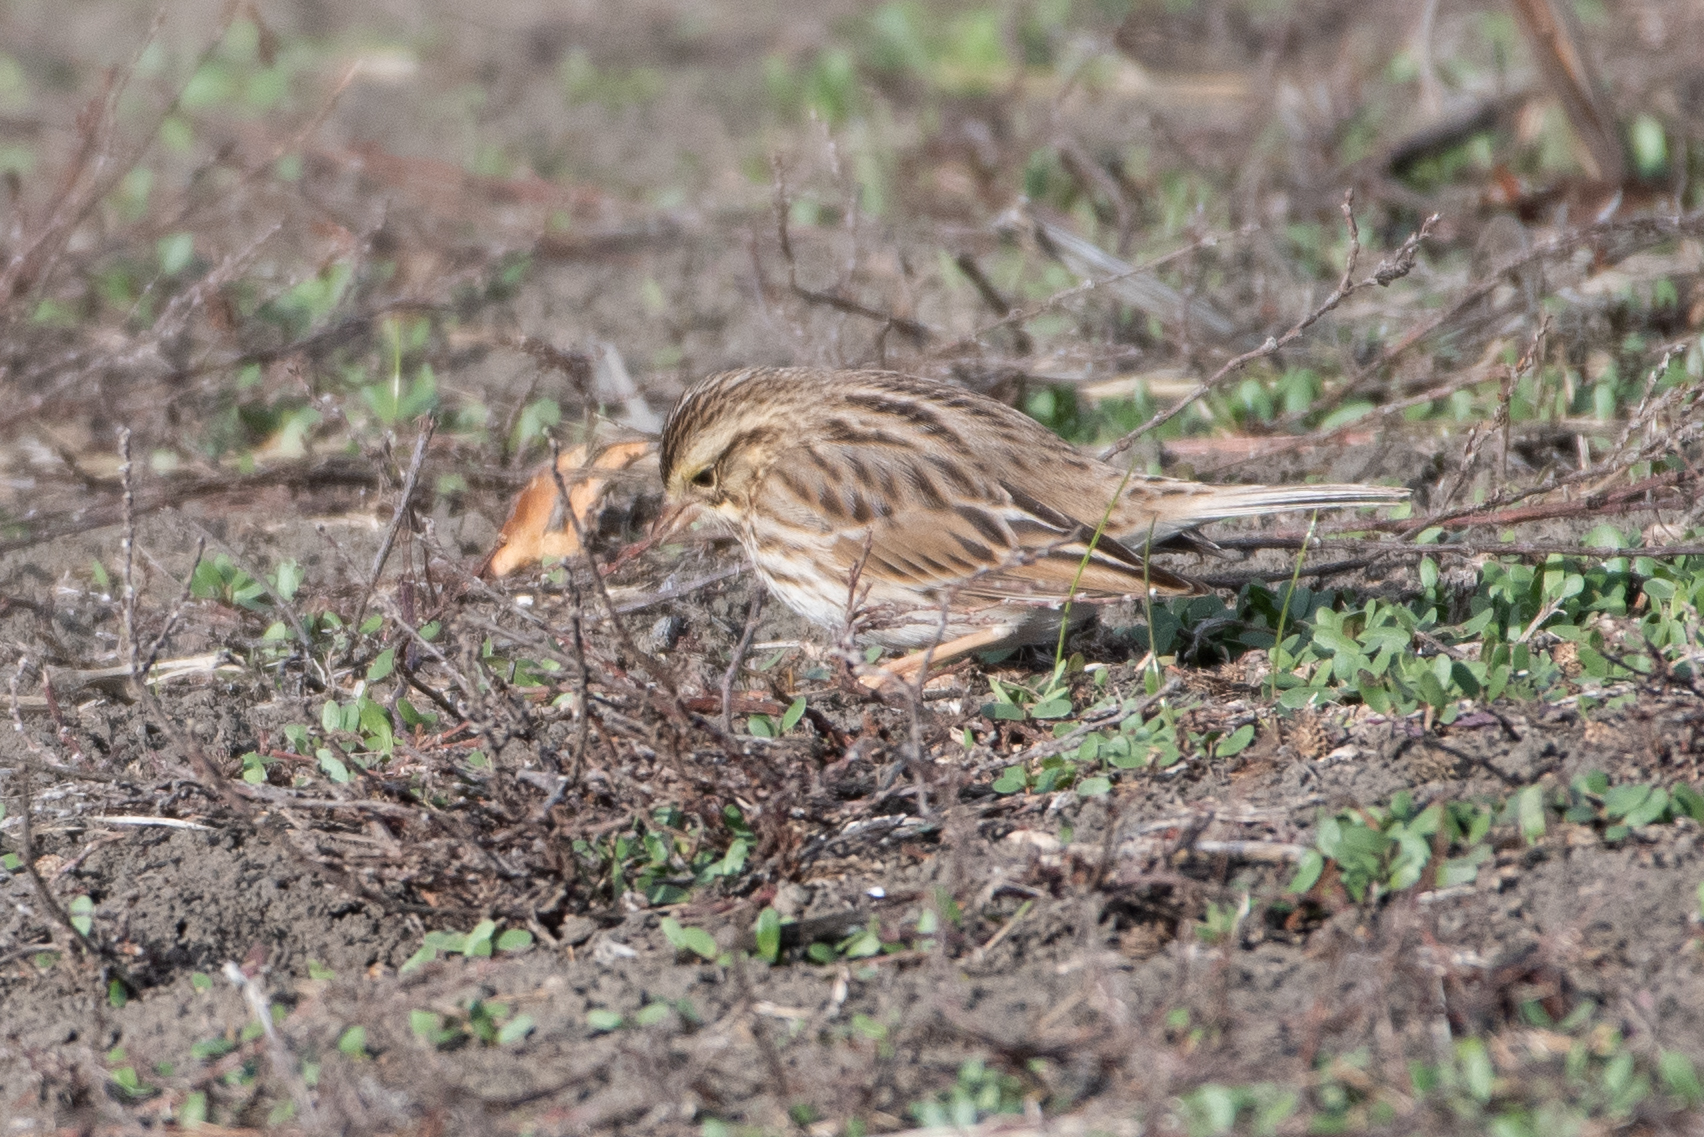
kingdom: Animalia
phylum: Chordata
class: Aves
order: Passeriformes
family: Passerellidae
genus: Passerculus
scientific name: Passerculus sandwichensis
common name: Savannah sparrow
